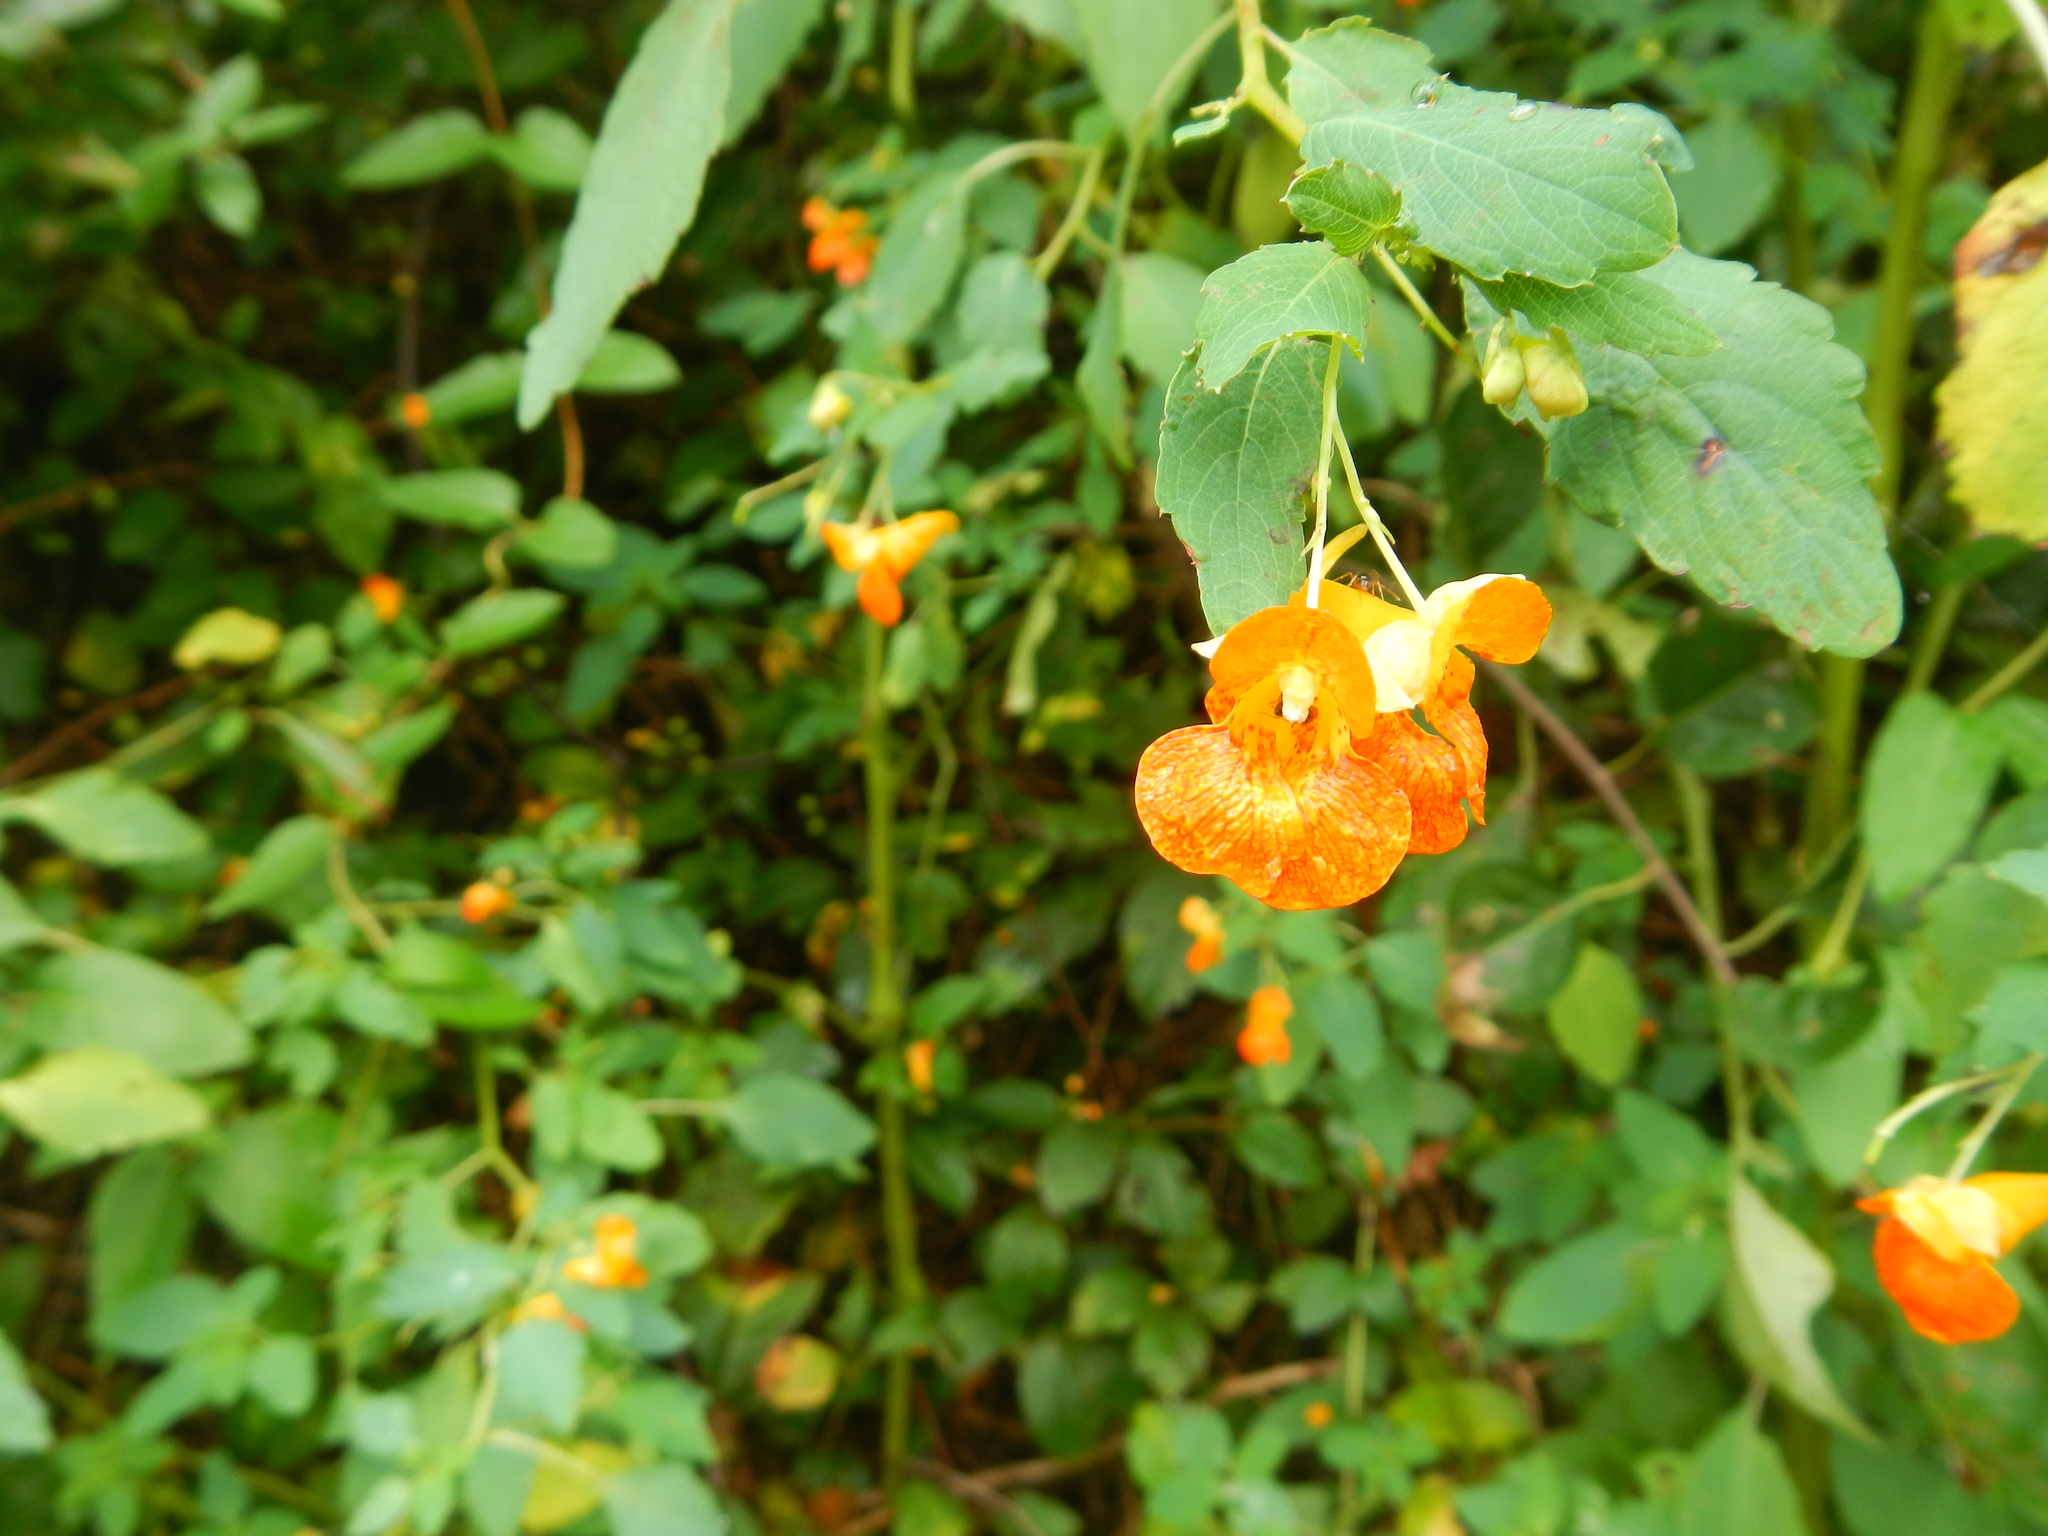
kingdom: Plantae
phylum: Tracheophyta
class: Magnoliopsida
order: Ericales
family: Balsaminaceae
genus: Impatiens
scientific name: Impatiens capensis
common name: Orange balsam
